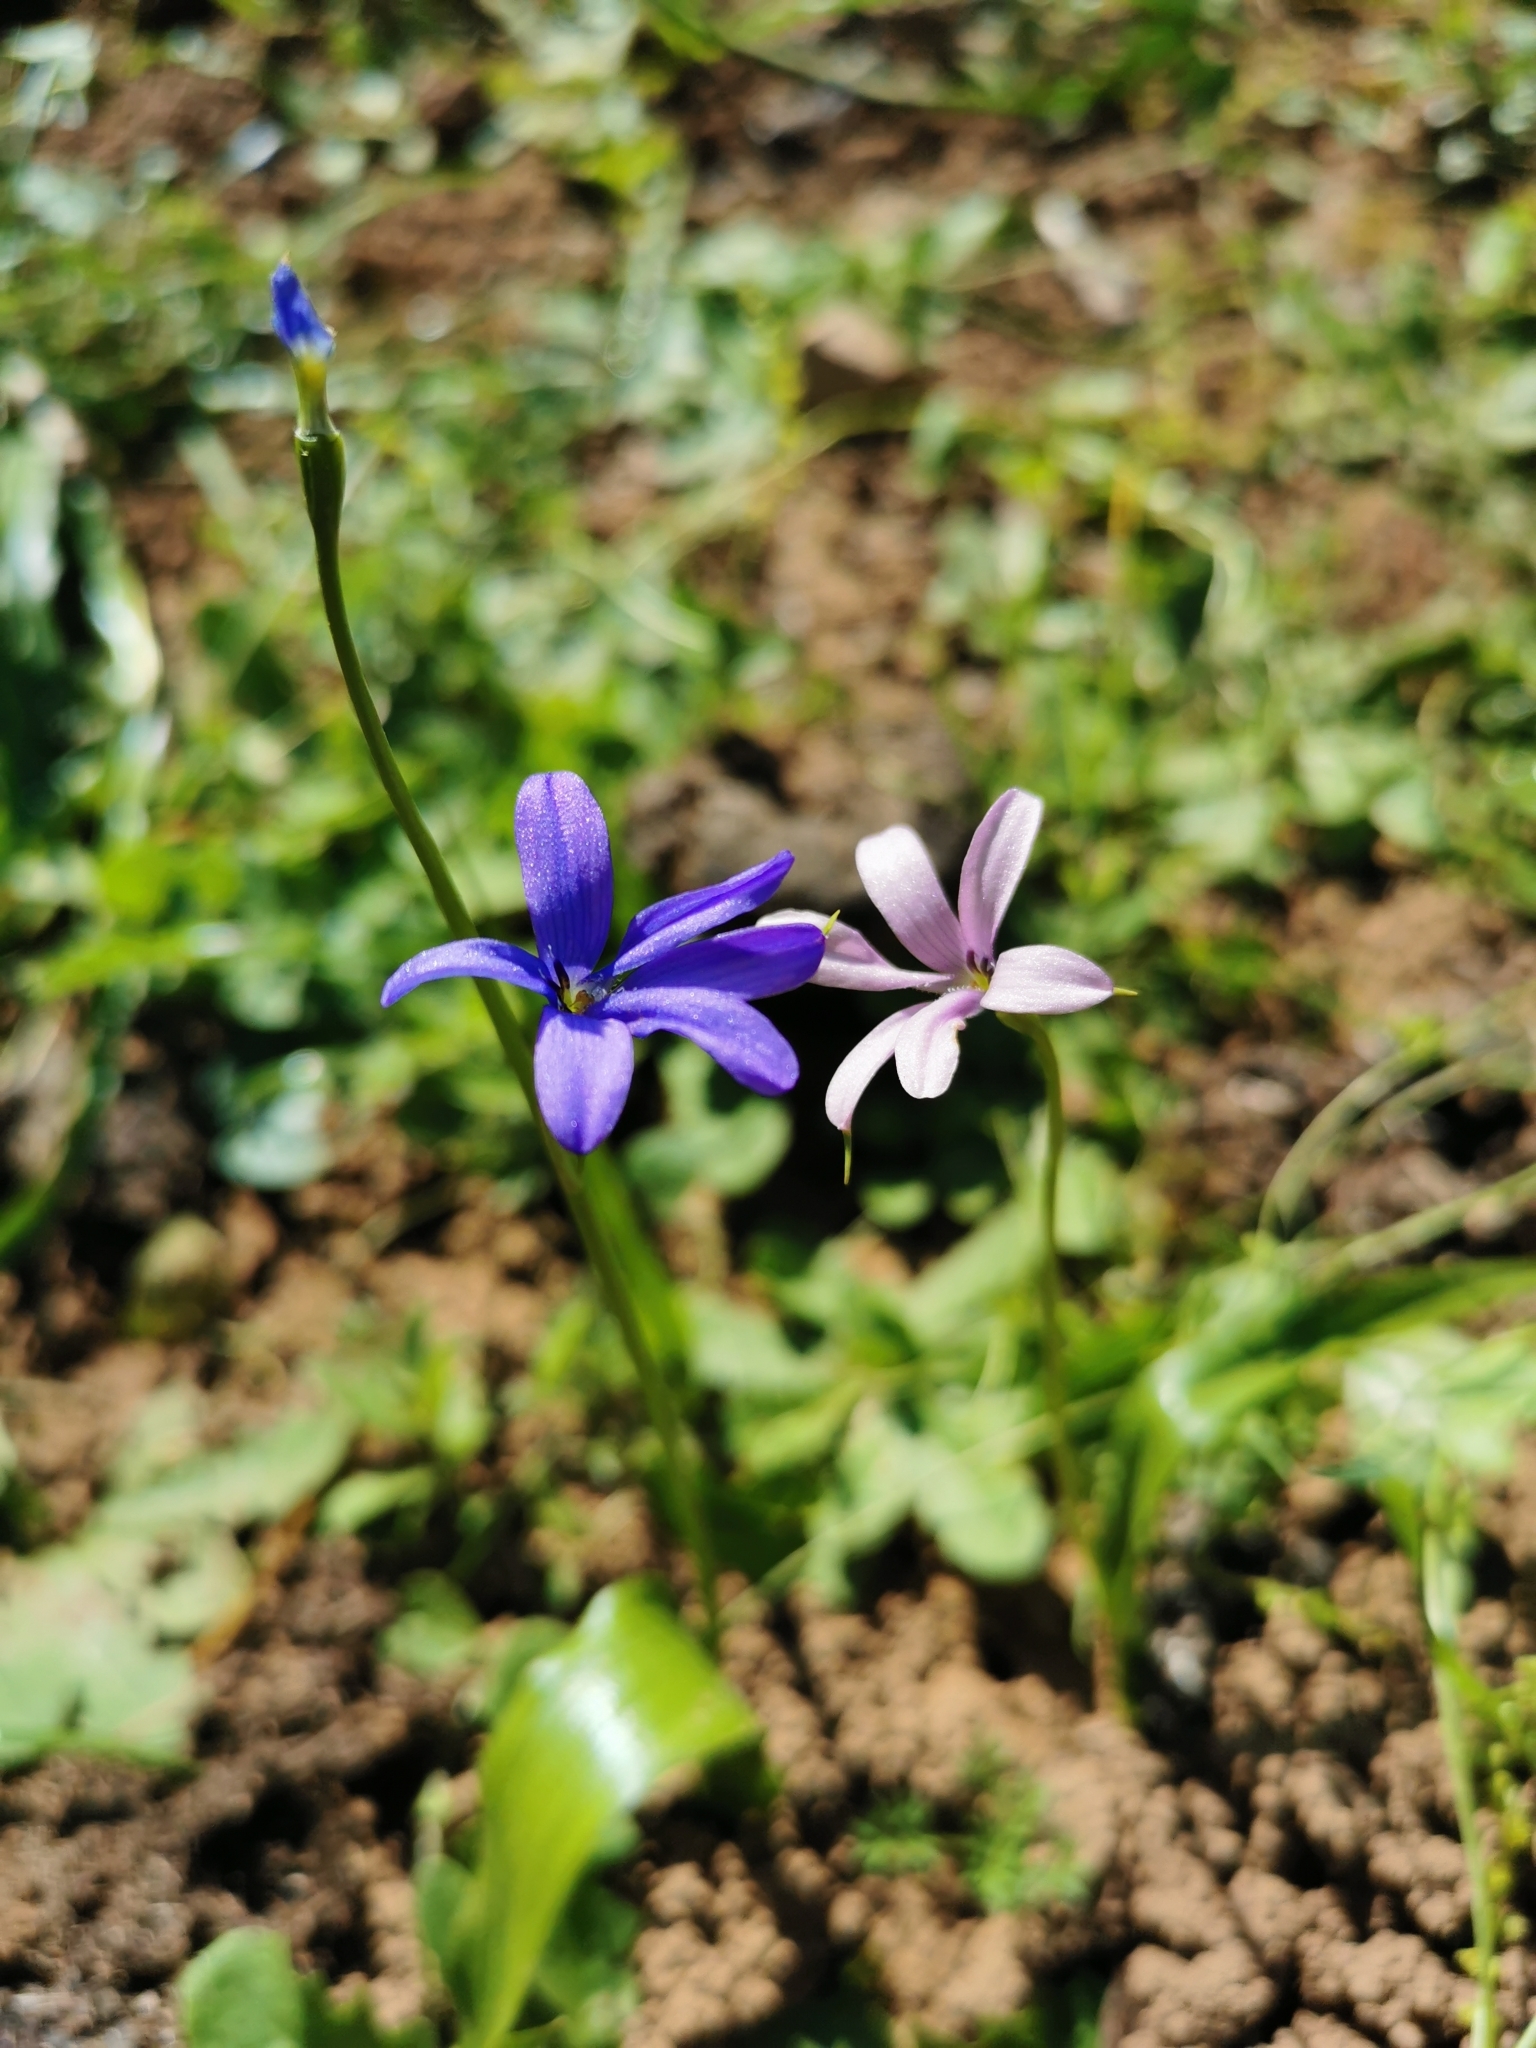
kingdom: Plantae
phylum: Tracheophyta
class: Liliopsida
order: Asparagales
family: Tecophilaeaceae
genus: Tecophilaea
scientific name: Tecophilaea violiflora
